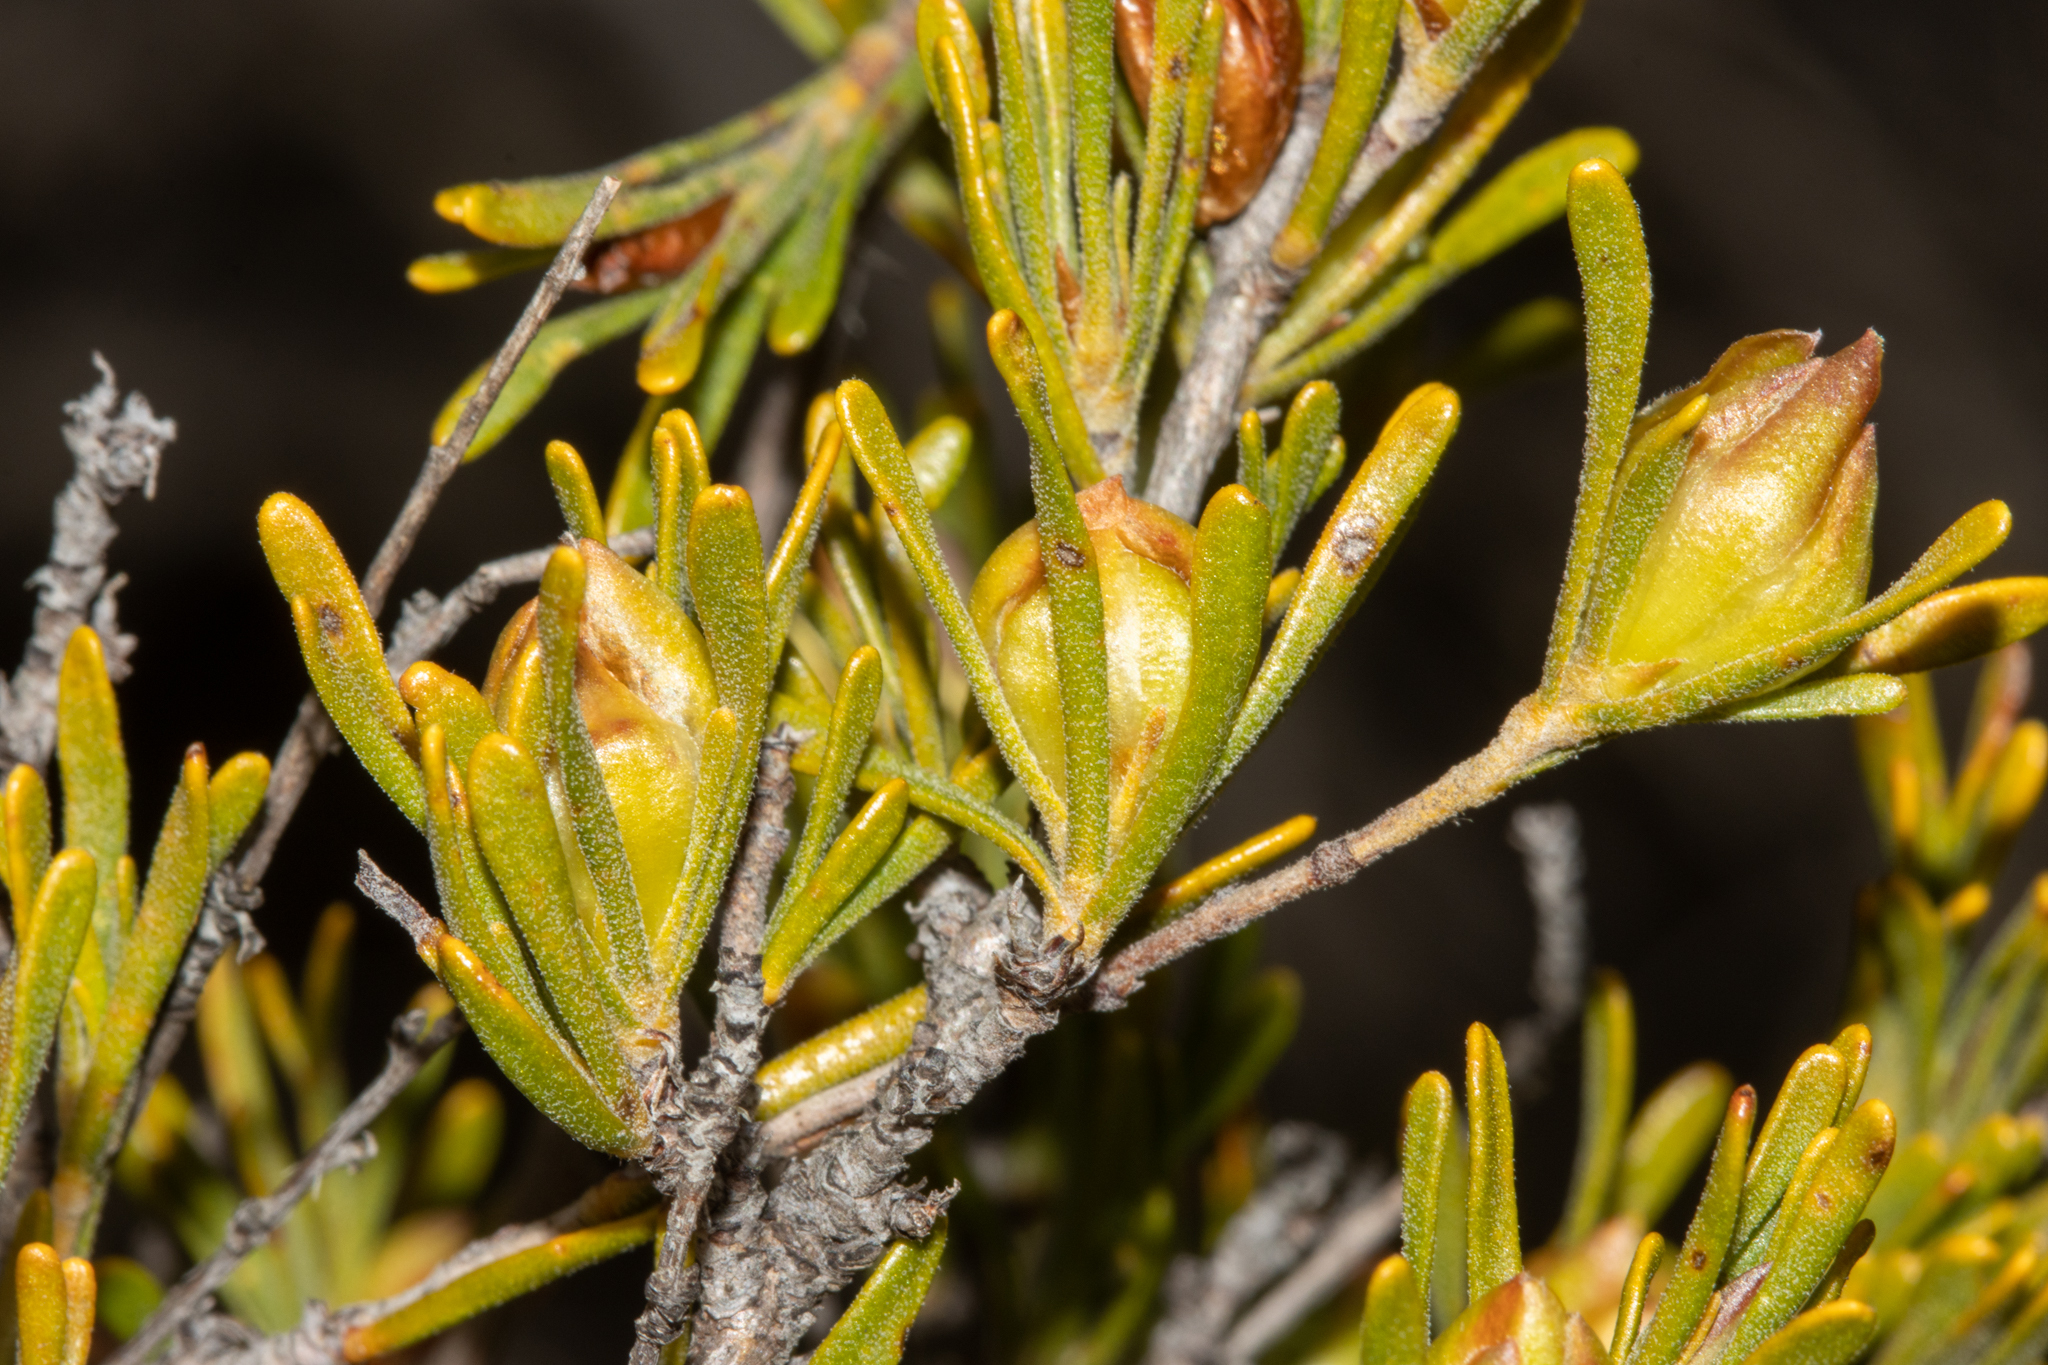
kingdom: Plantae
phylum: Tracheophyta
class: Magnoliopsida
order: Dilleniales
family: Dilleniaceae
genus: Hibbertia
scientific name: Hibbertia inclusa
